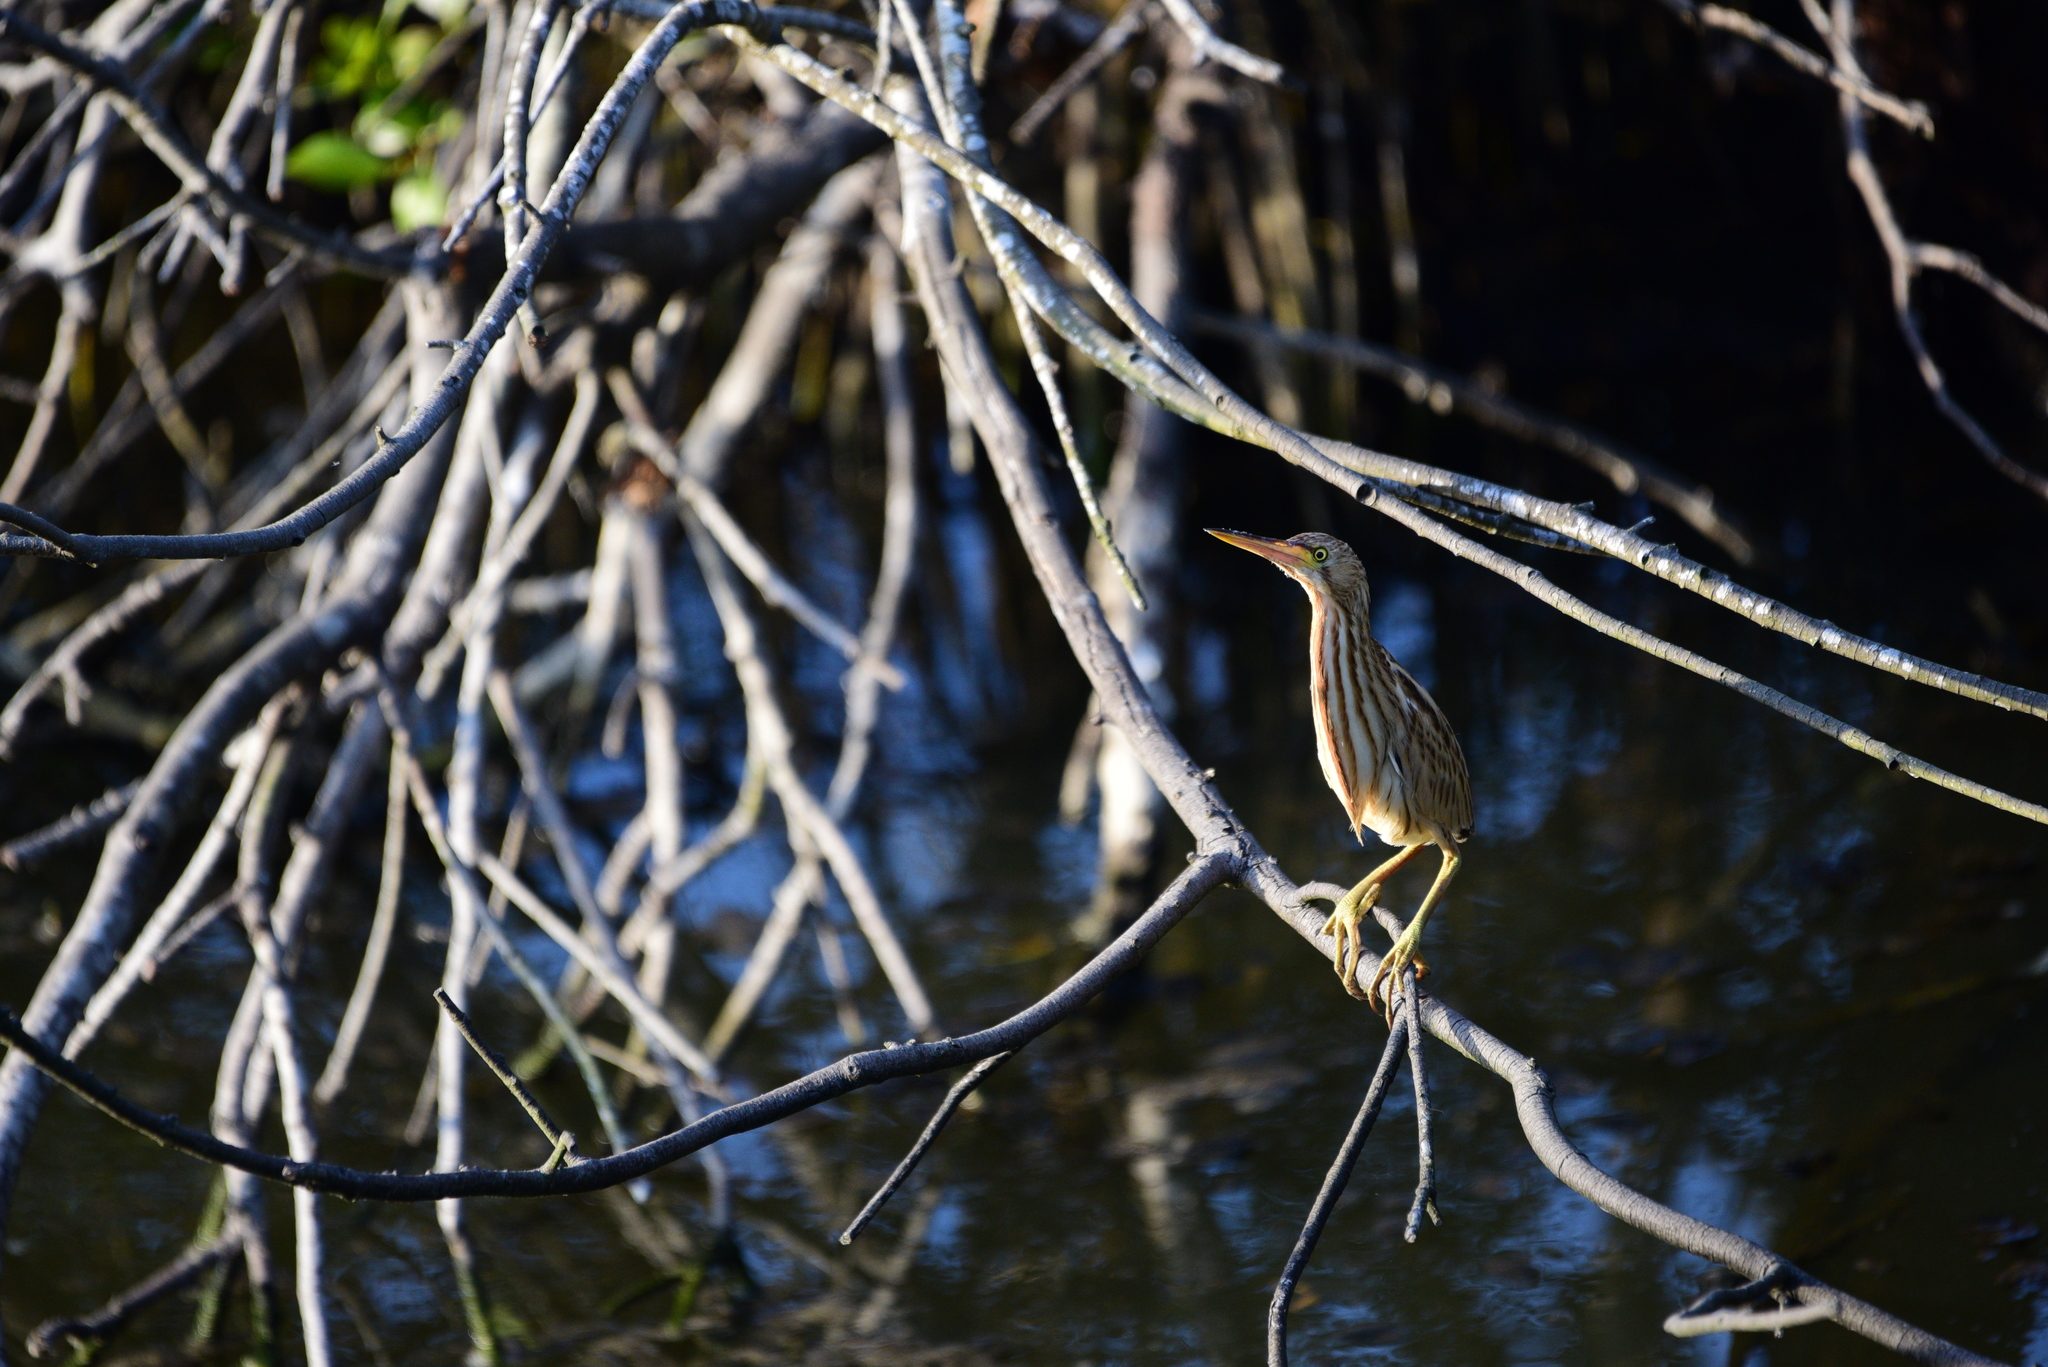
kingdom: Animalia
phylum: Chordata
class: Aves
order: Pelecaniformes
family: Ardeidae
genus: Ixobrychus
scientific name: Ixobrychus sinensis
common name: Yellow bittern
